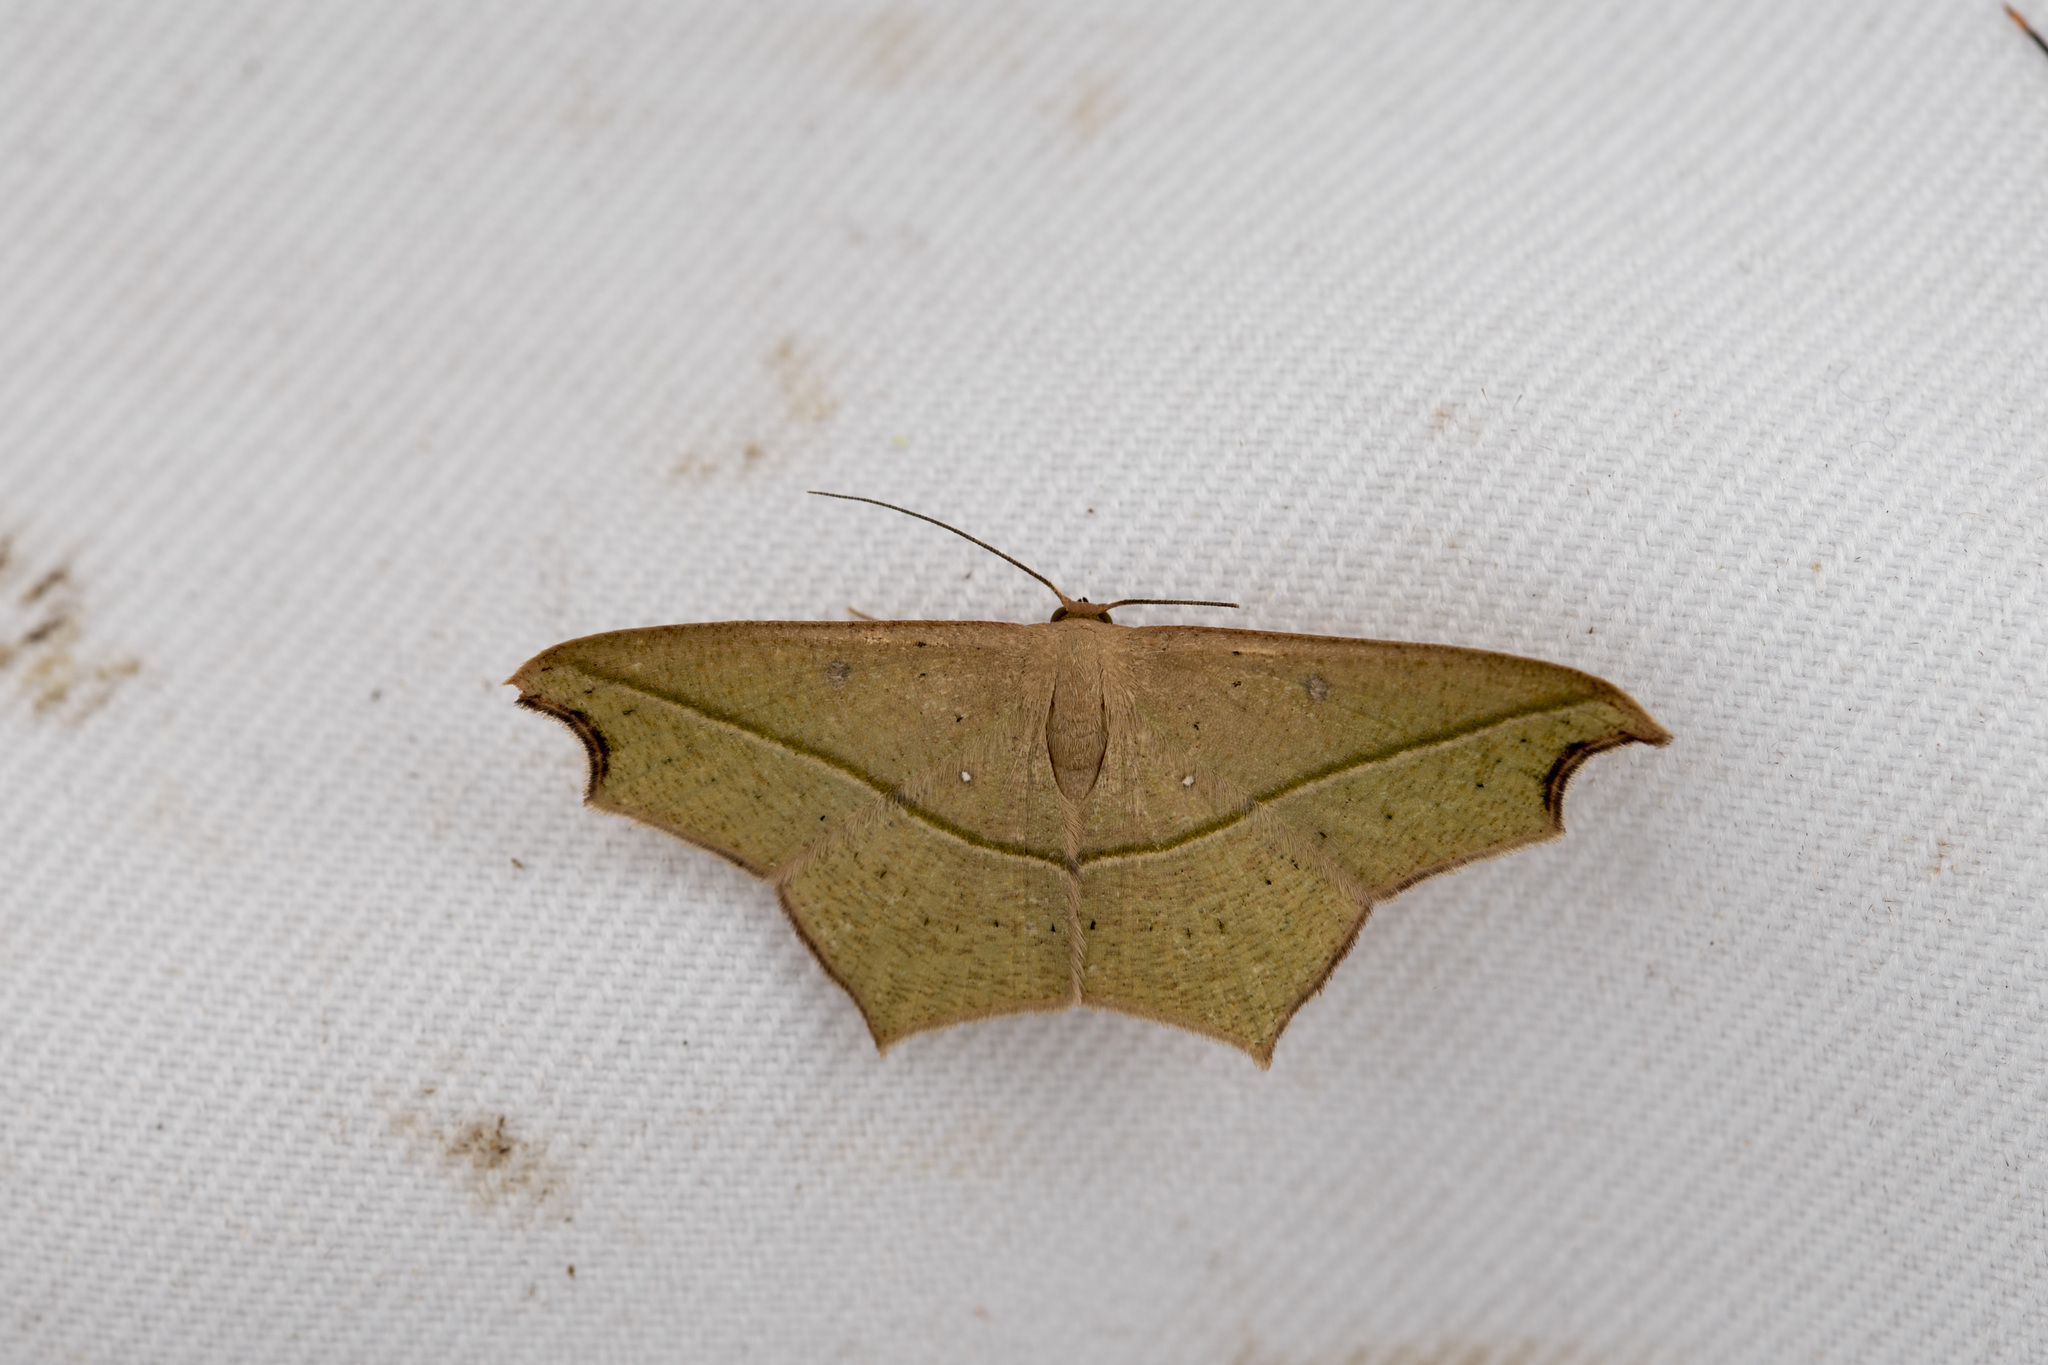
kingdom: Animalia
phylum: Arthropoda
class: Insecta
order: Lepidoptera
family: Geometridae
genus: Traminda
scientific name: Traminda aventiaria
